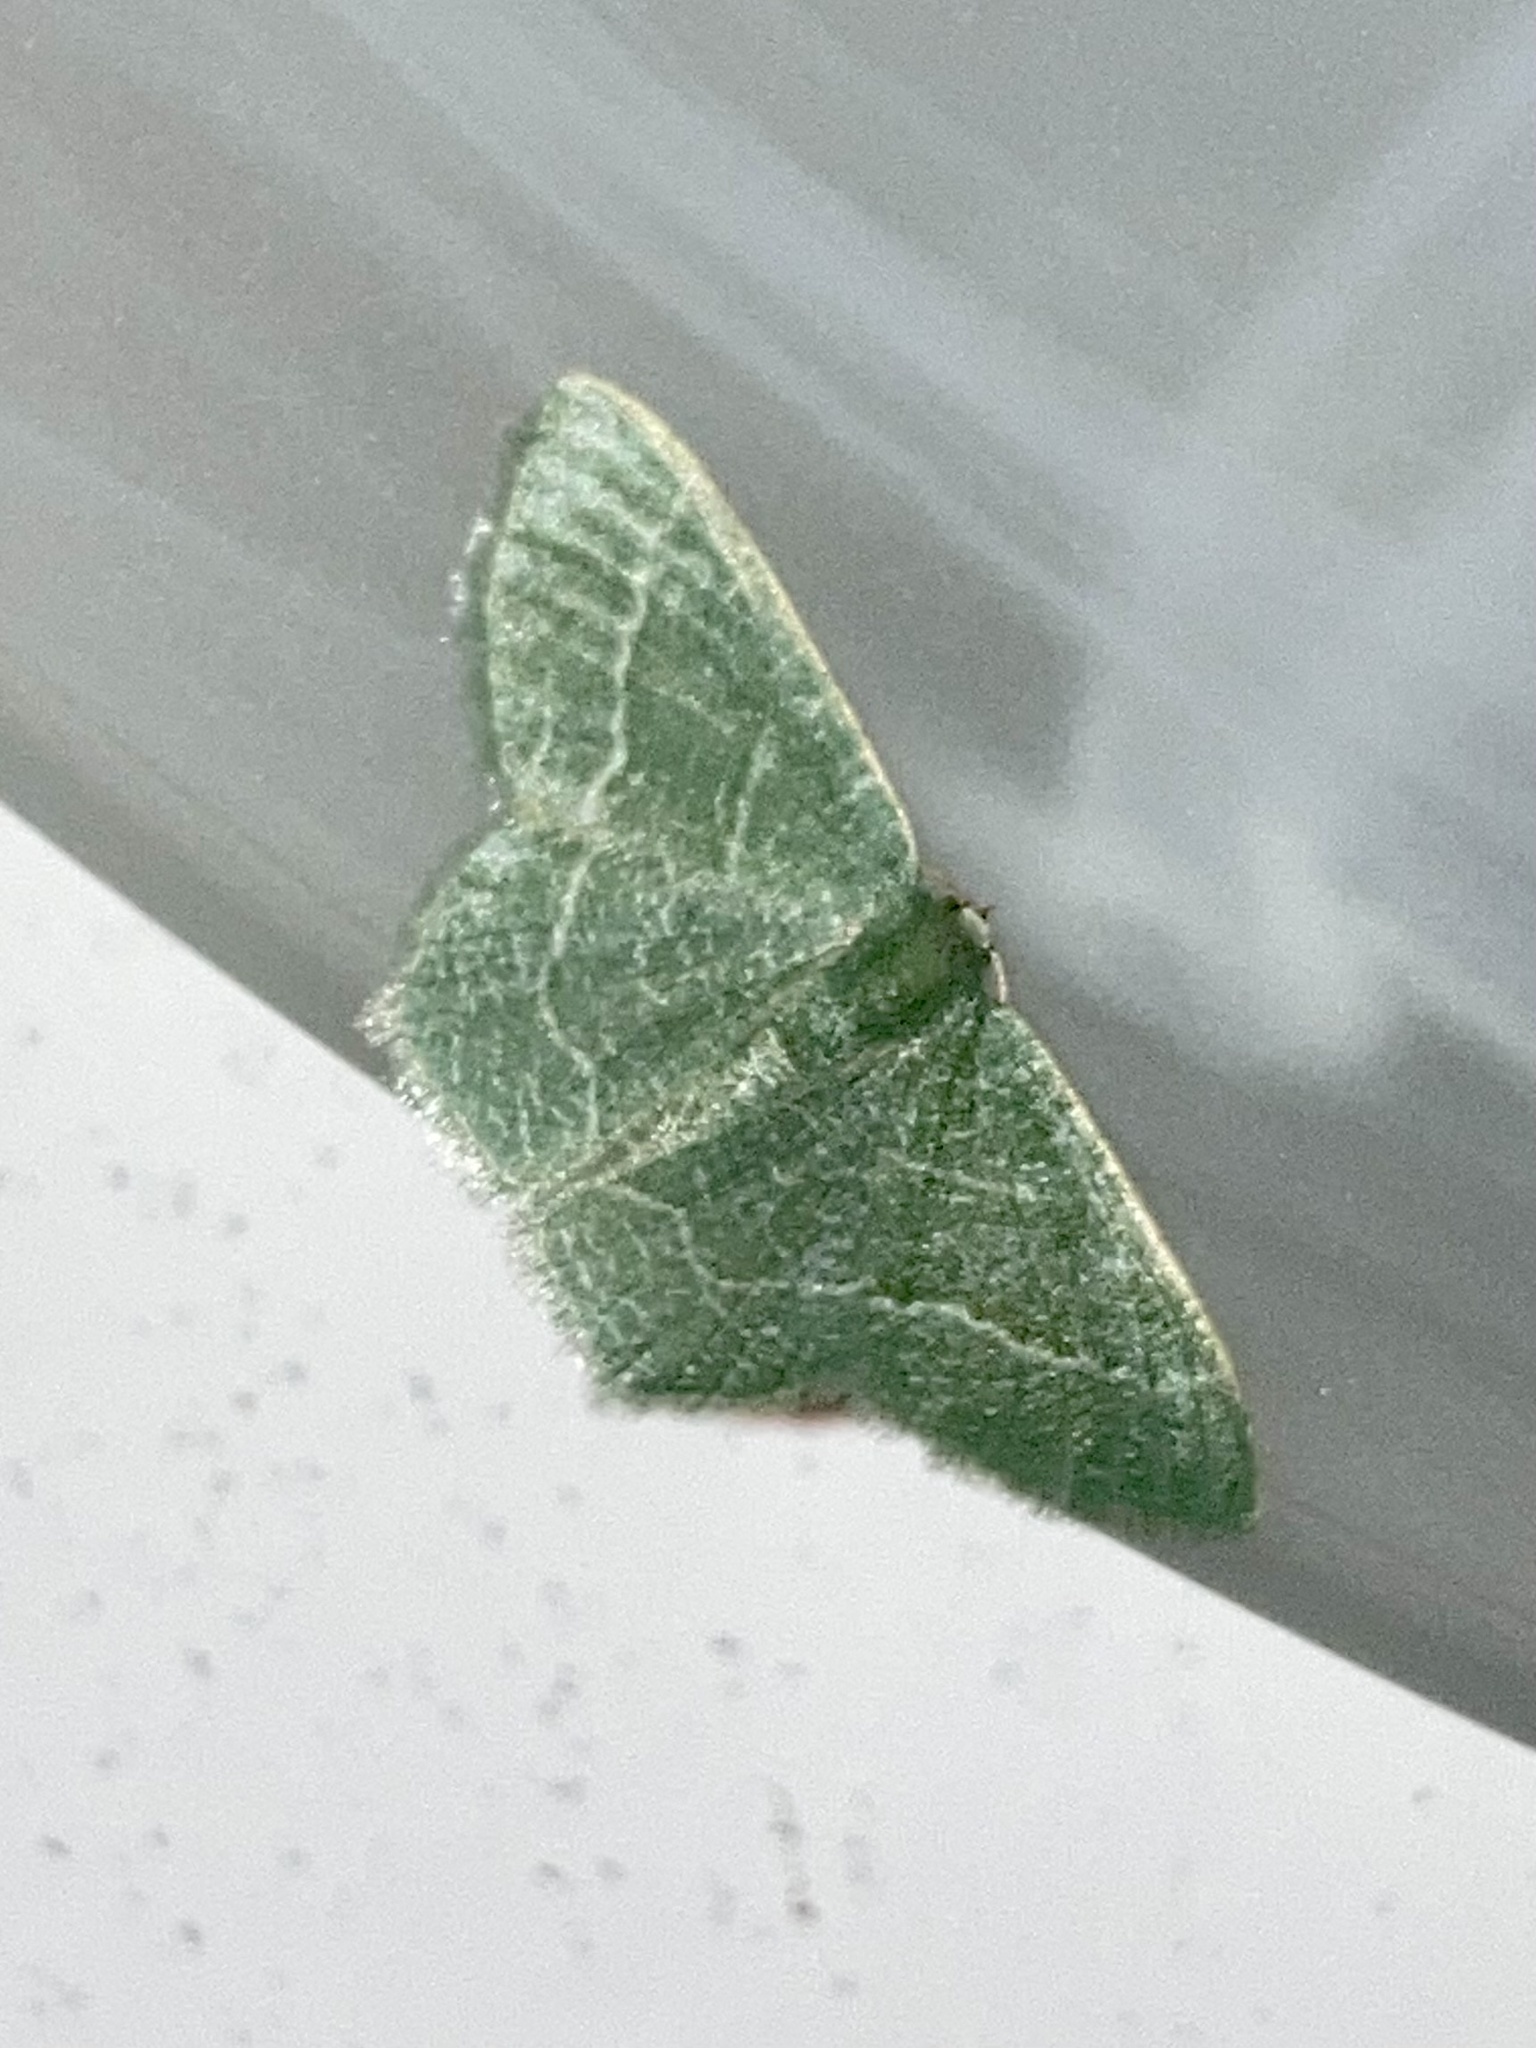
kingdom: Animalia
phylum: Arthropoda
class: Insecta
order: Lepidoptera
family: Geometridae
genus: Chlorissa
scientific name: Chlorissa etruscaria
